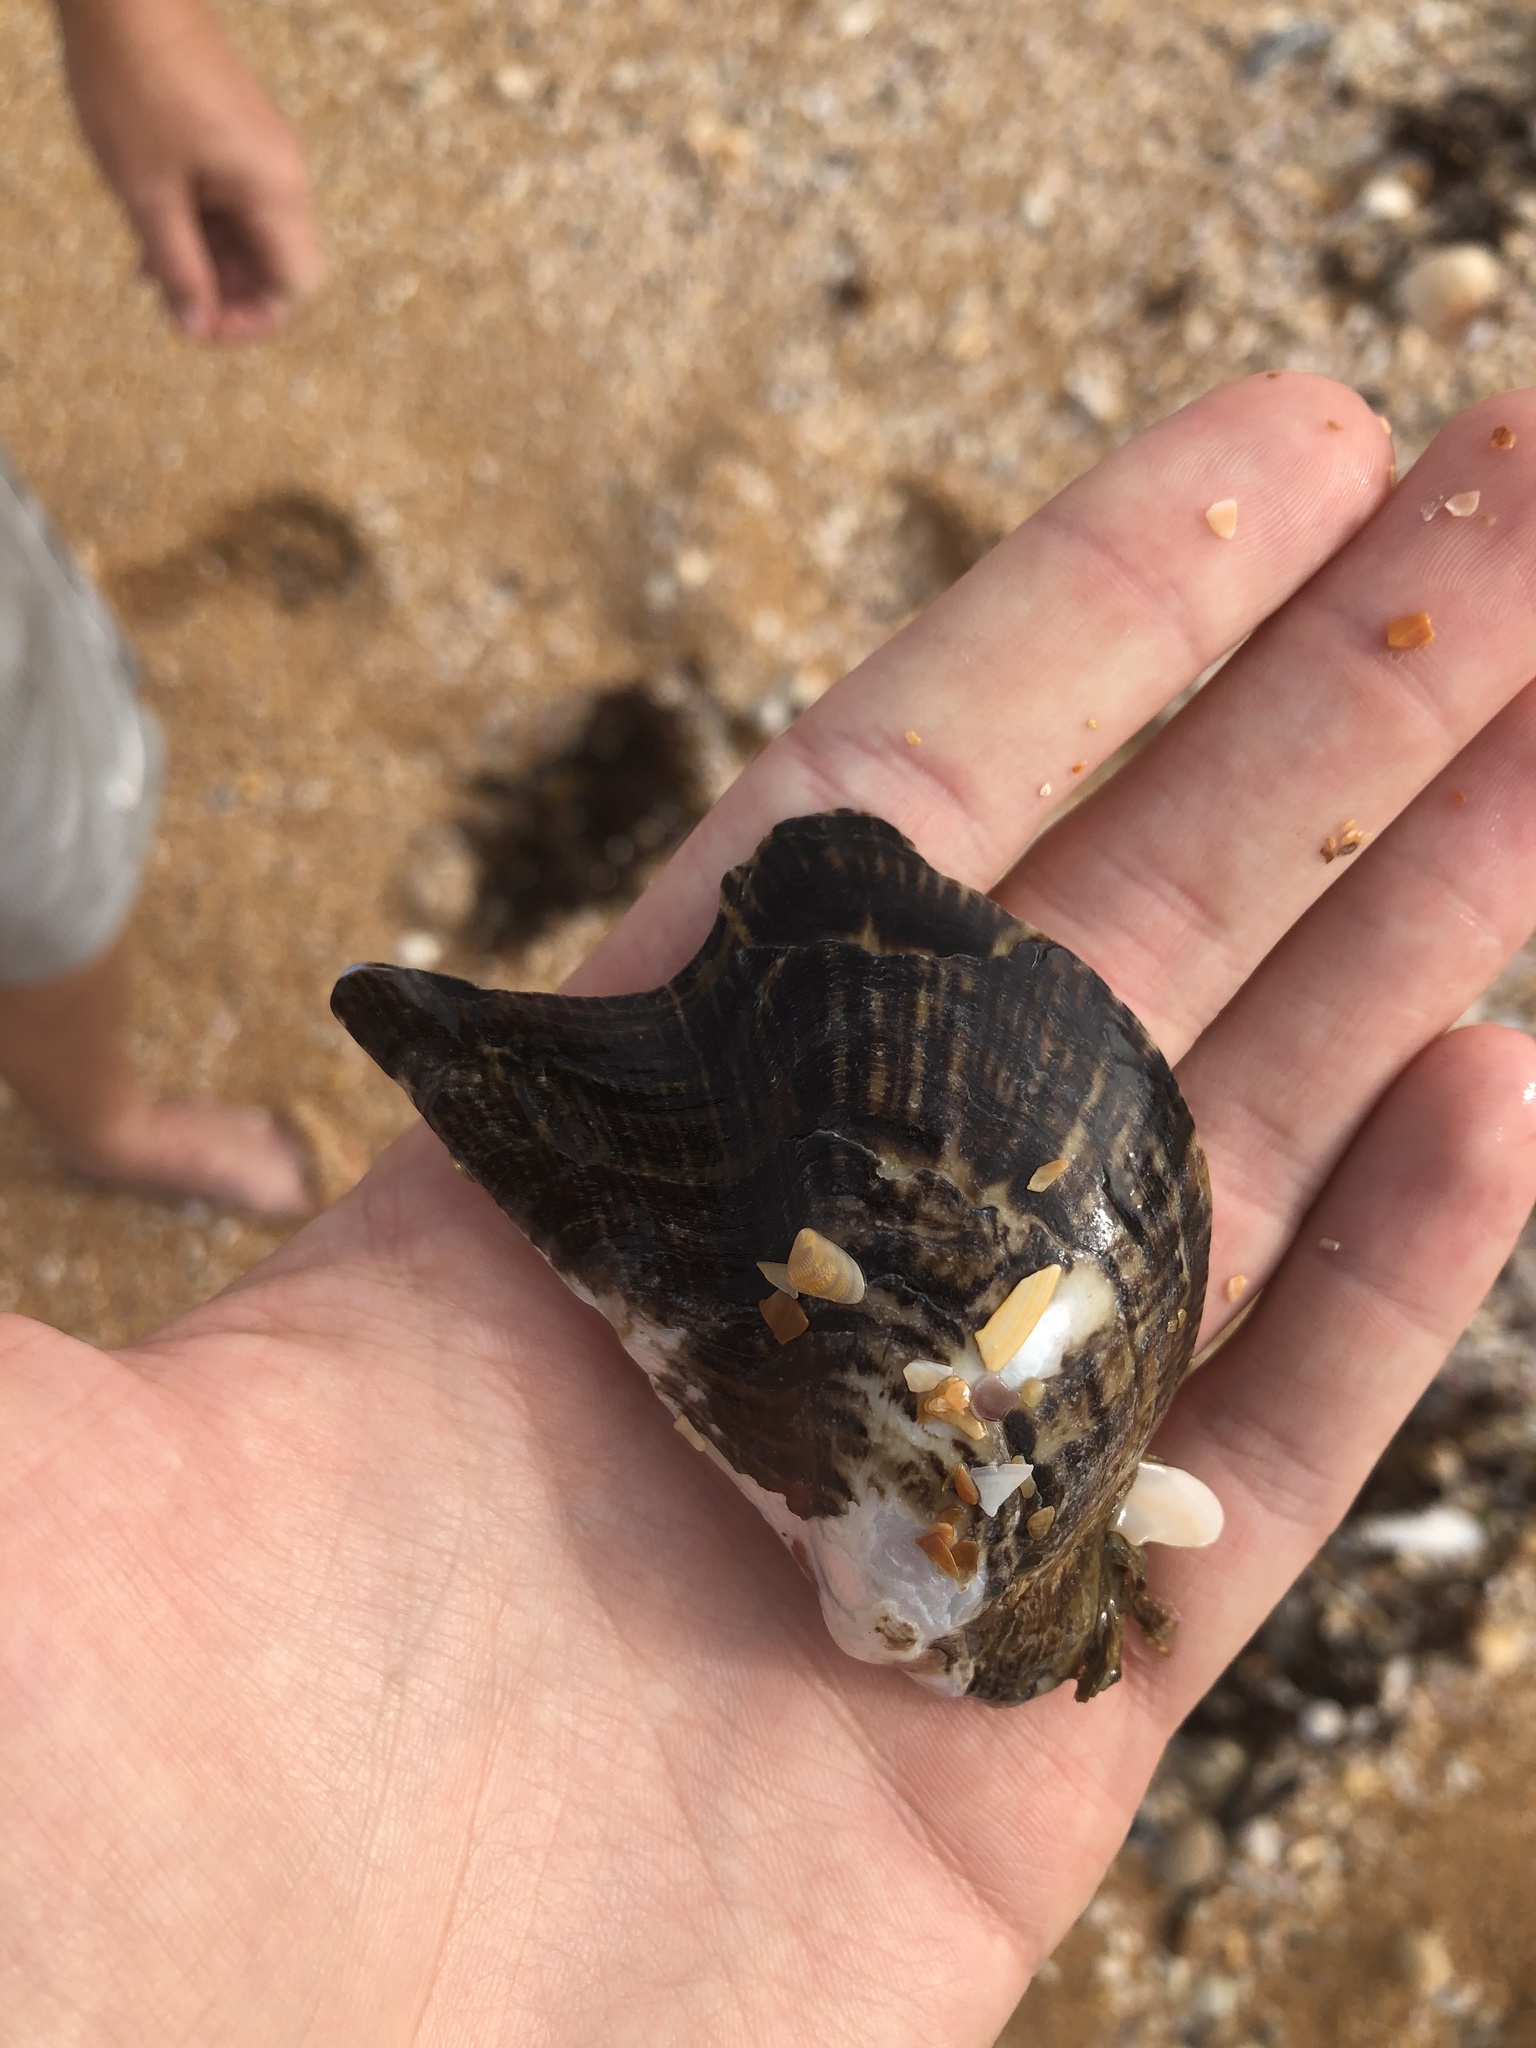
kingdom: Animalia
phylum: Mollusca
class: Bivalvia
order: Ostreida
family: Pteriidae
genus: Pteria
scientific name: Pteria colymbus
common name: Atlantic wing-oyster
